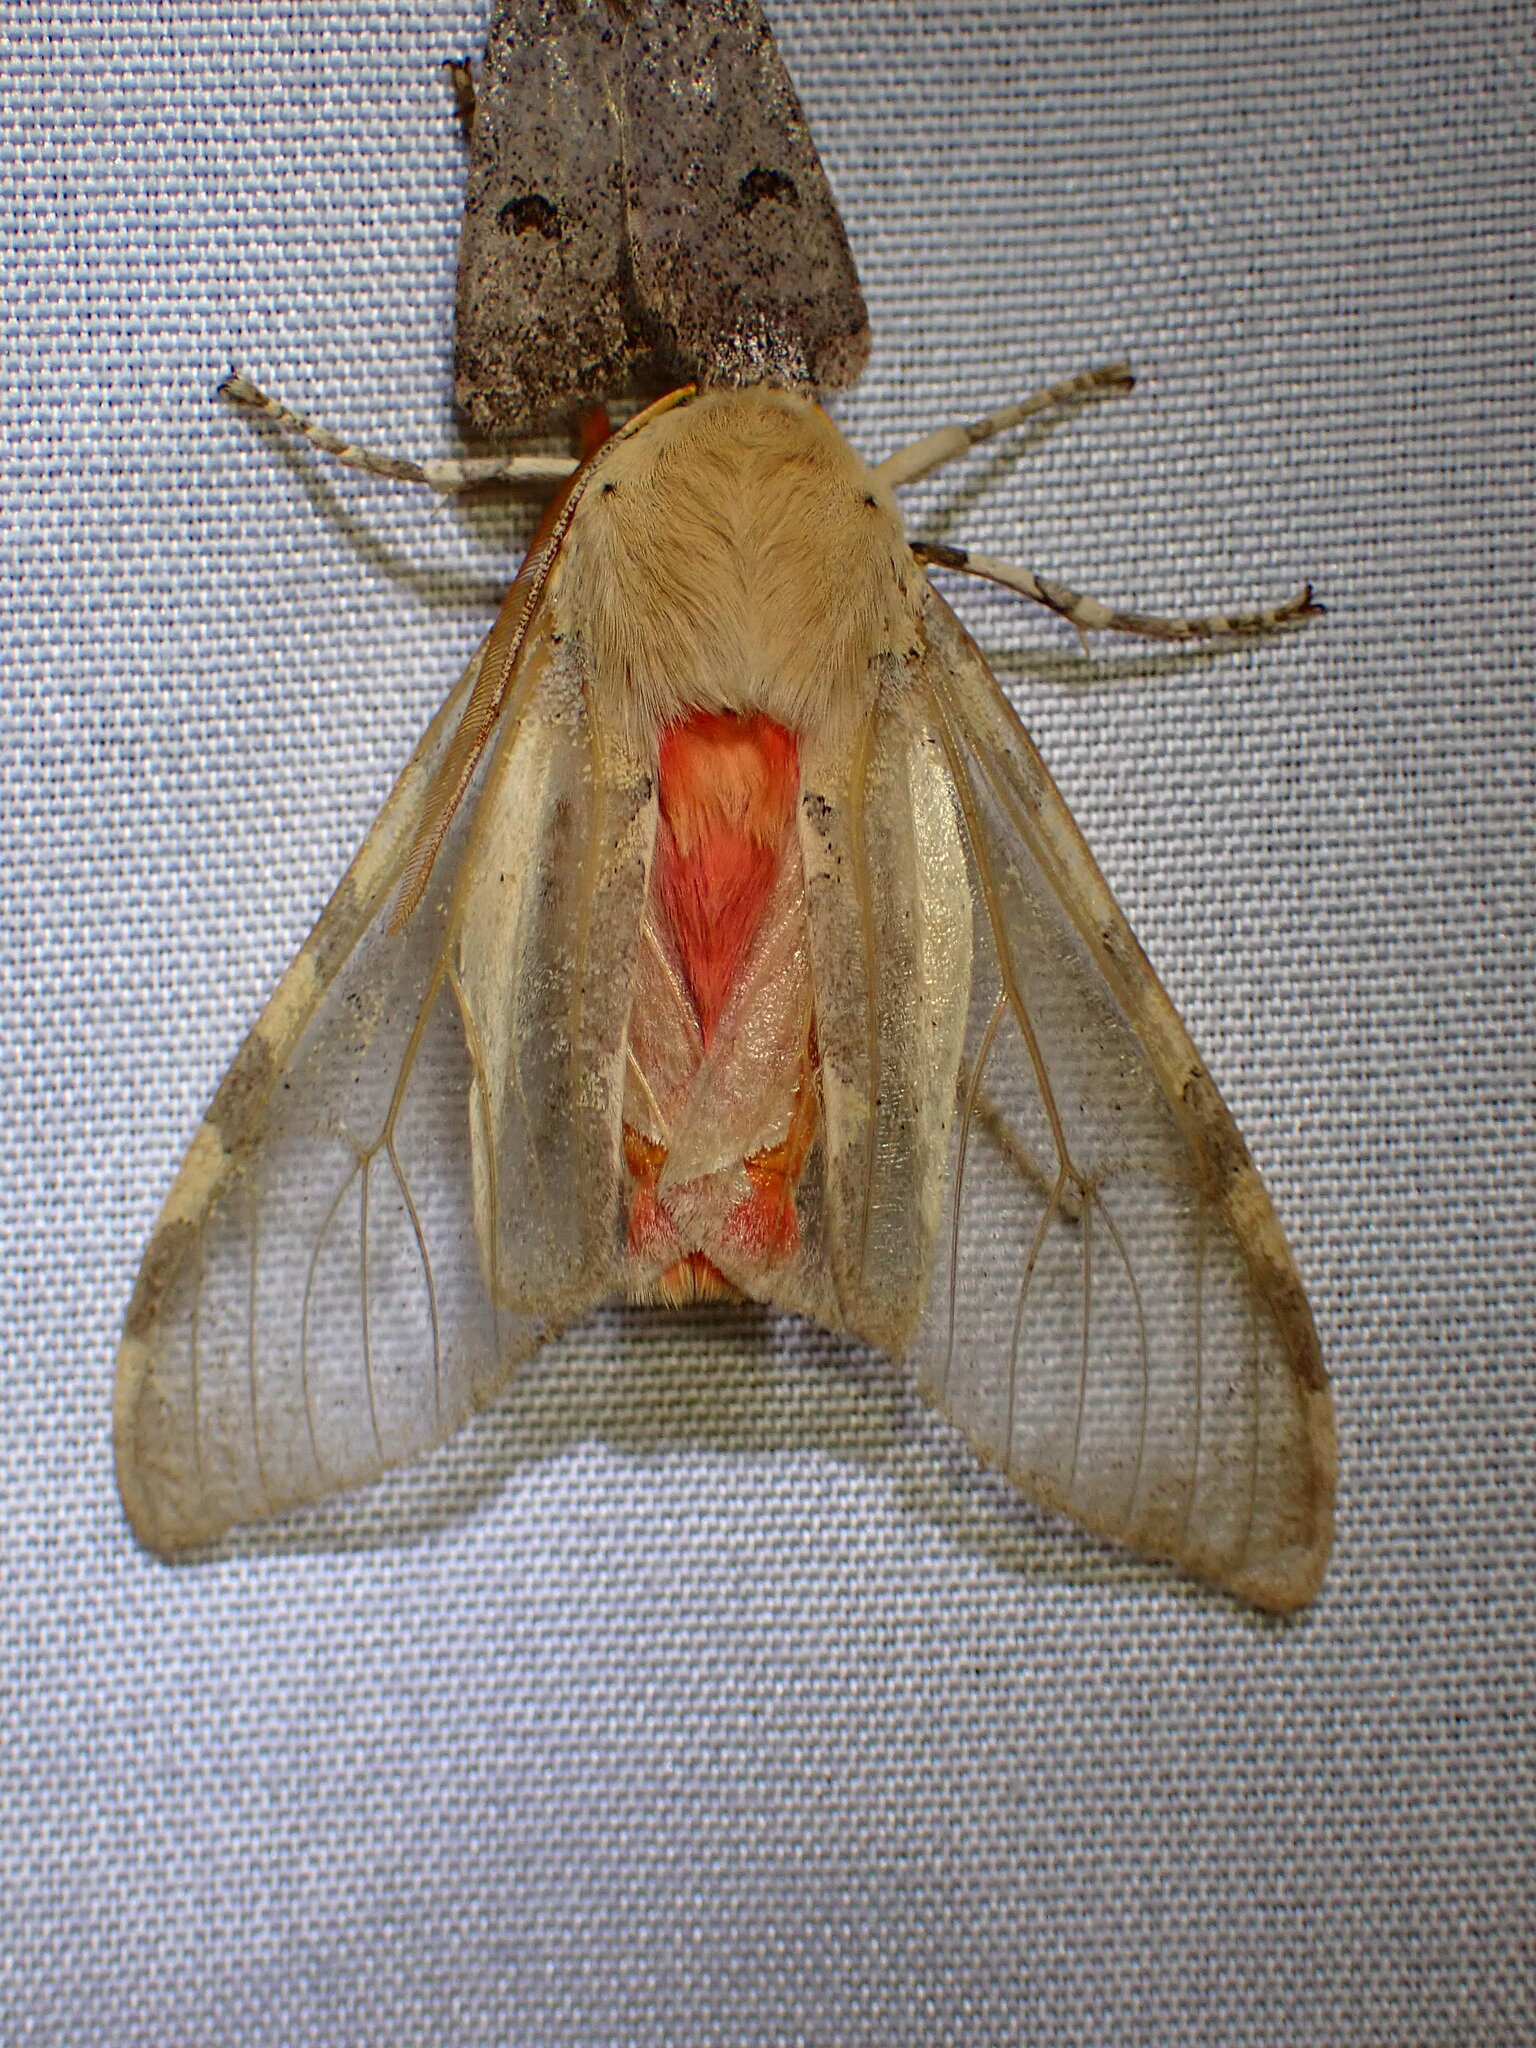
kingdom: Animalia
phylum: Arthropoda
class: Insecta
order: Lepidoptera
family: Erebidae
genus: Hemihyalea
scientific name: Hemihyalea edwardsii
